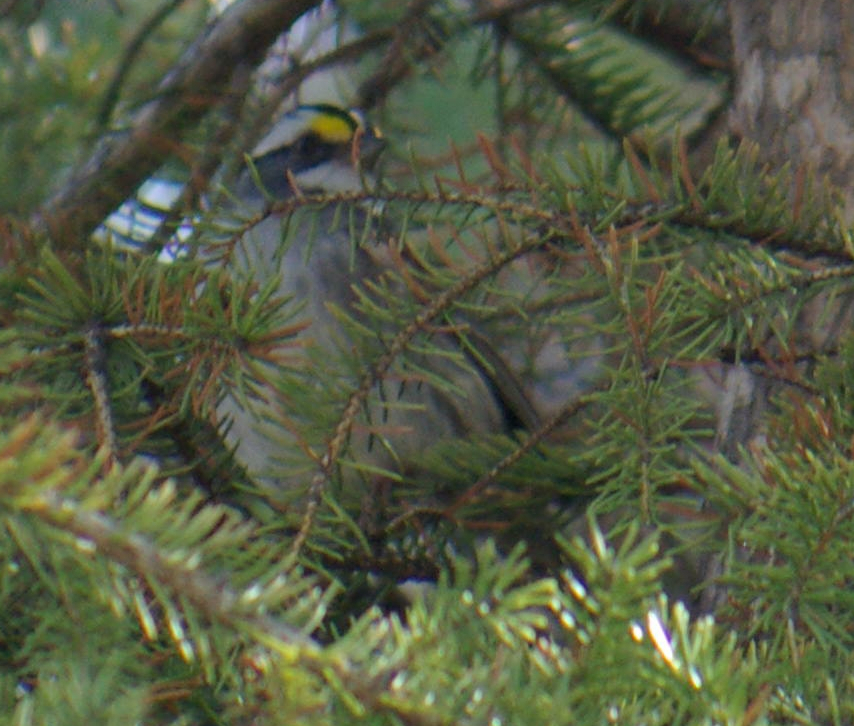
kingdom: Animalia
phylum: Chordata
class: Aves
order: Passeriformes
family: Passerellidae
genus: Zonotrichia
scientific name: Zonotrichia albicollis
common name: White-throated sparrow
